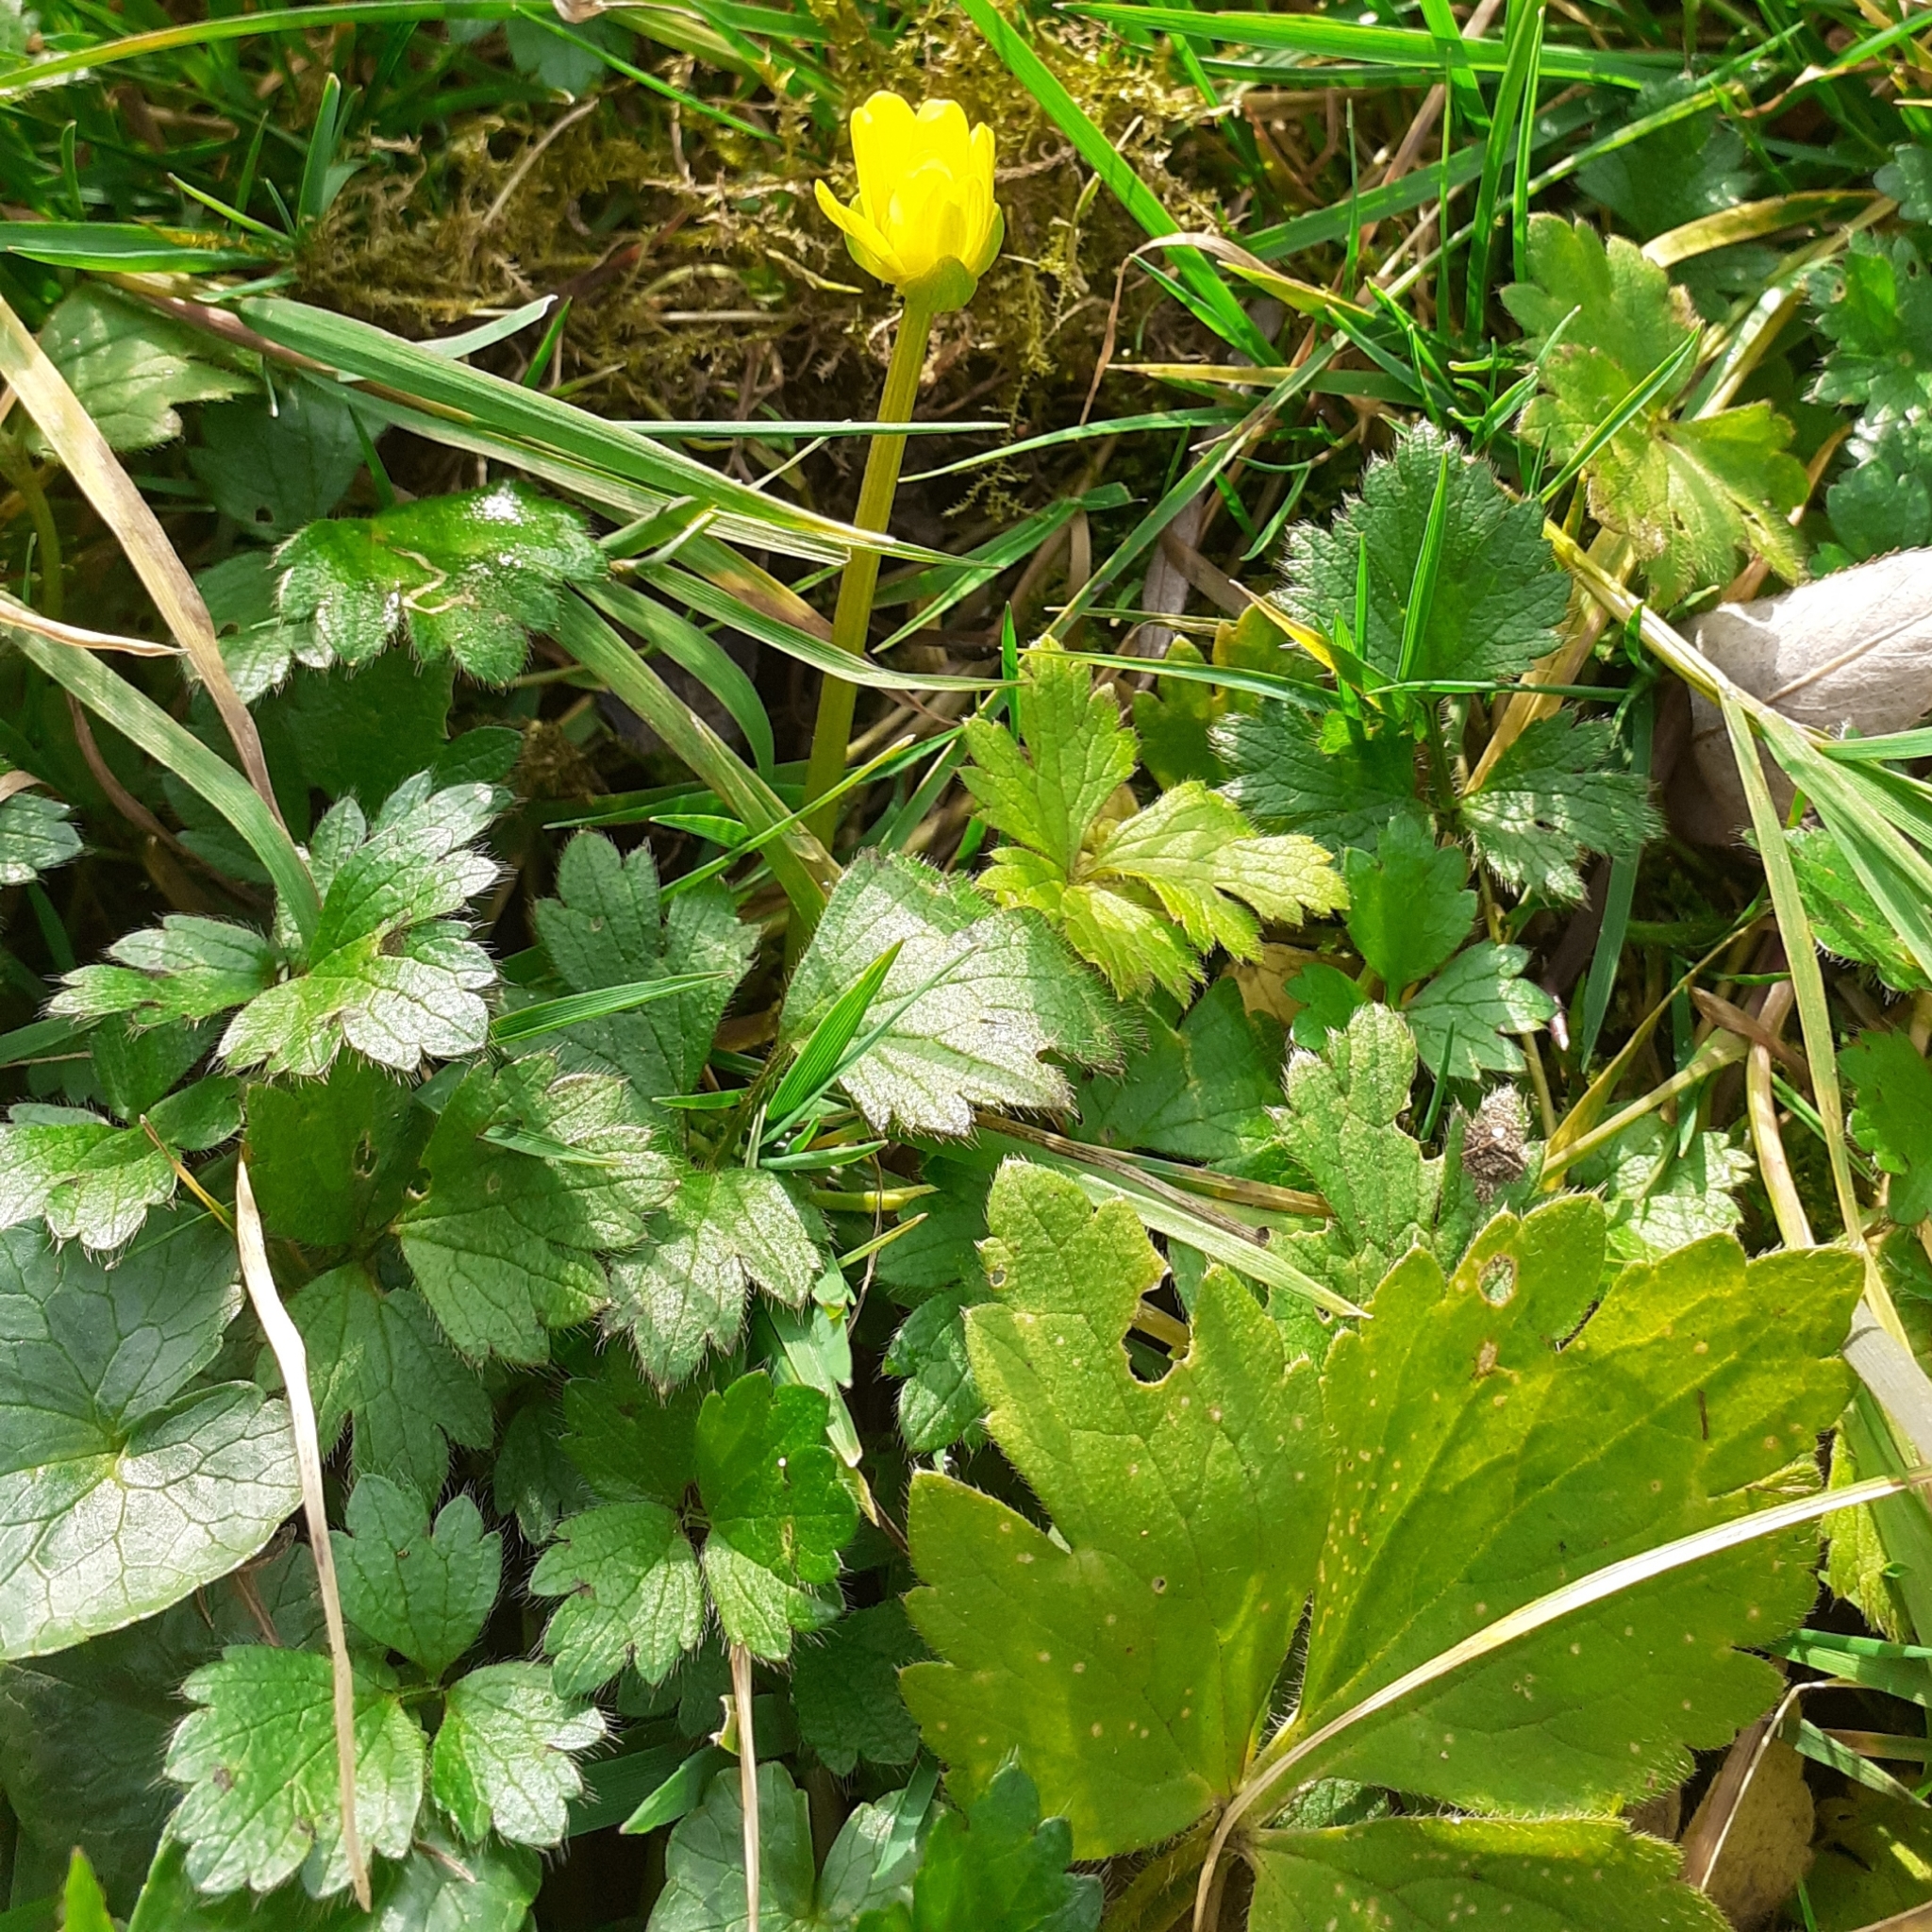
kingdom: Plantae
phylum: Tracheophyta
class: Magnoliopsida
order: Ranunculales
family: Ranunculaceae
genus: Ficaria
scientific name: Ficaria verna
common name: Lesser celandine
